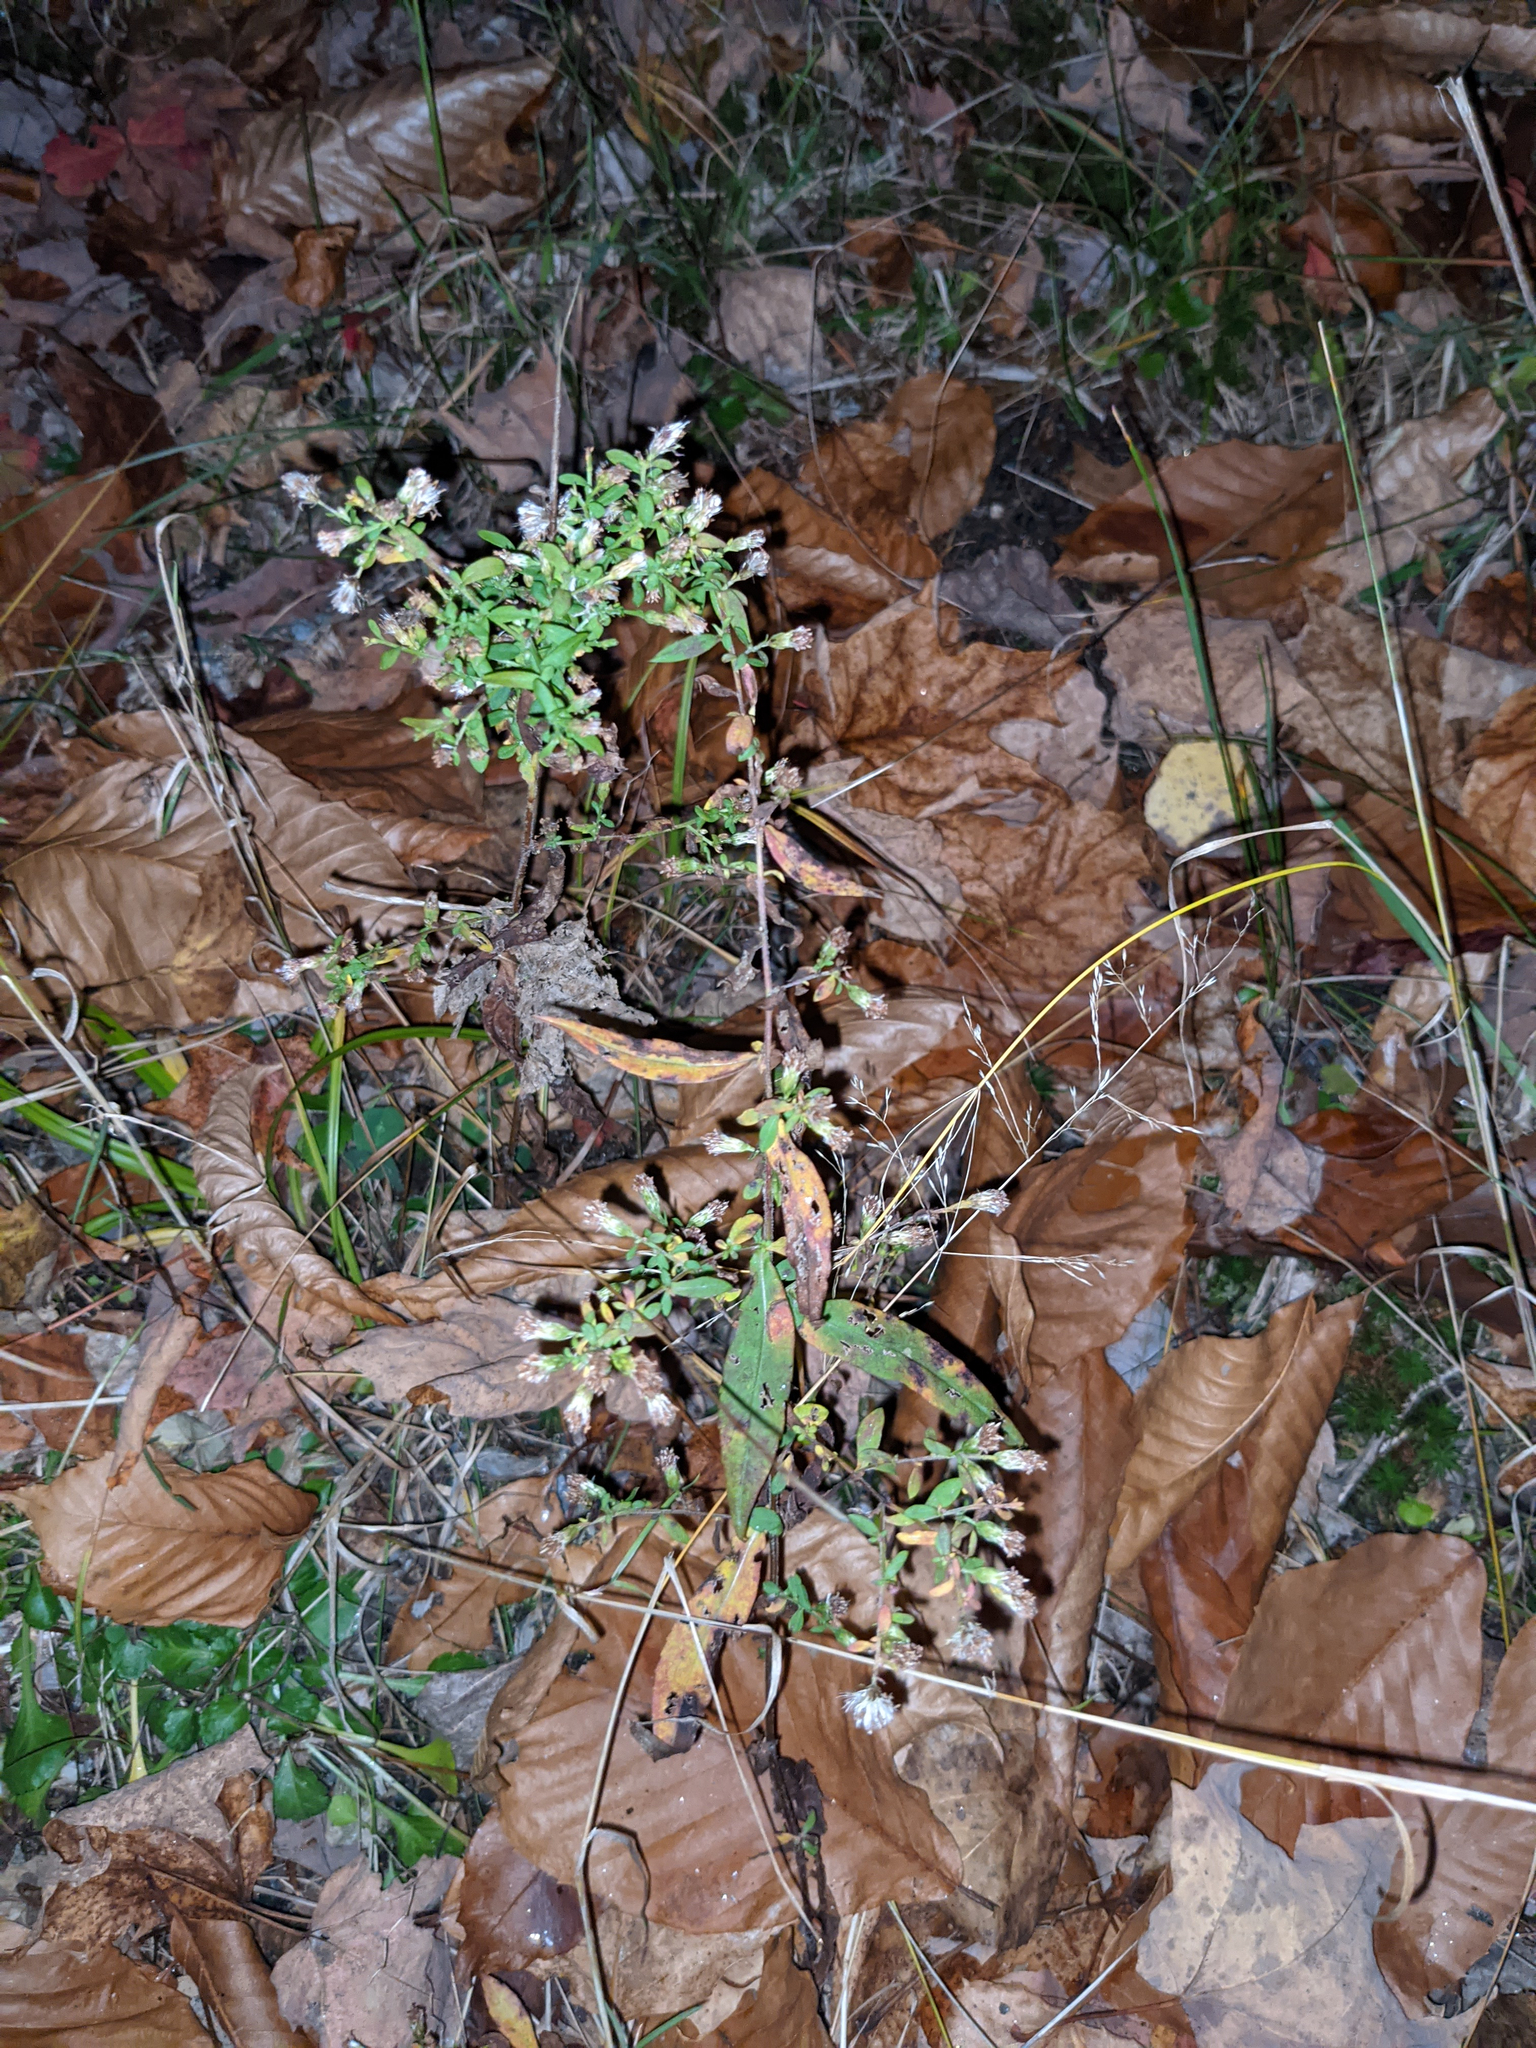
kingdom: Plantae
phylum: Tracheophyta
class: Magnoliopsida
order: Asterales
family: Asteraceae
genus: Symphyotrichum
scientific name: Symphyotrichum lateriflorum
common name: Calico aster
